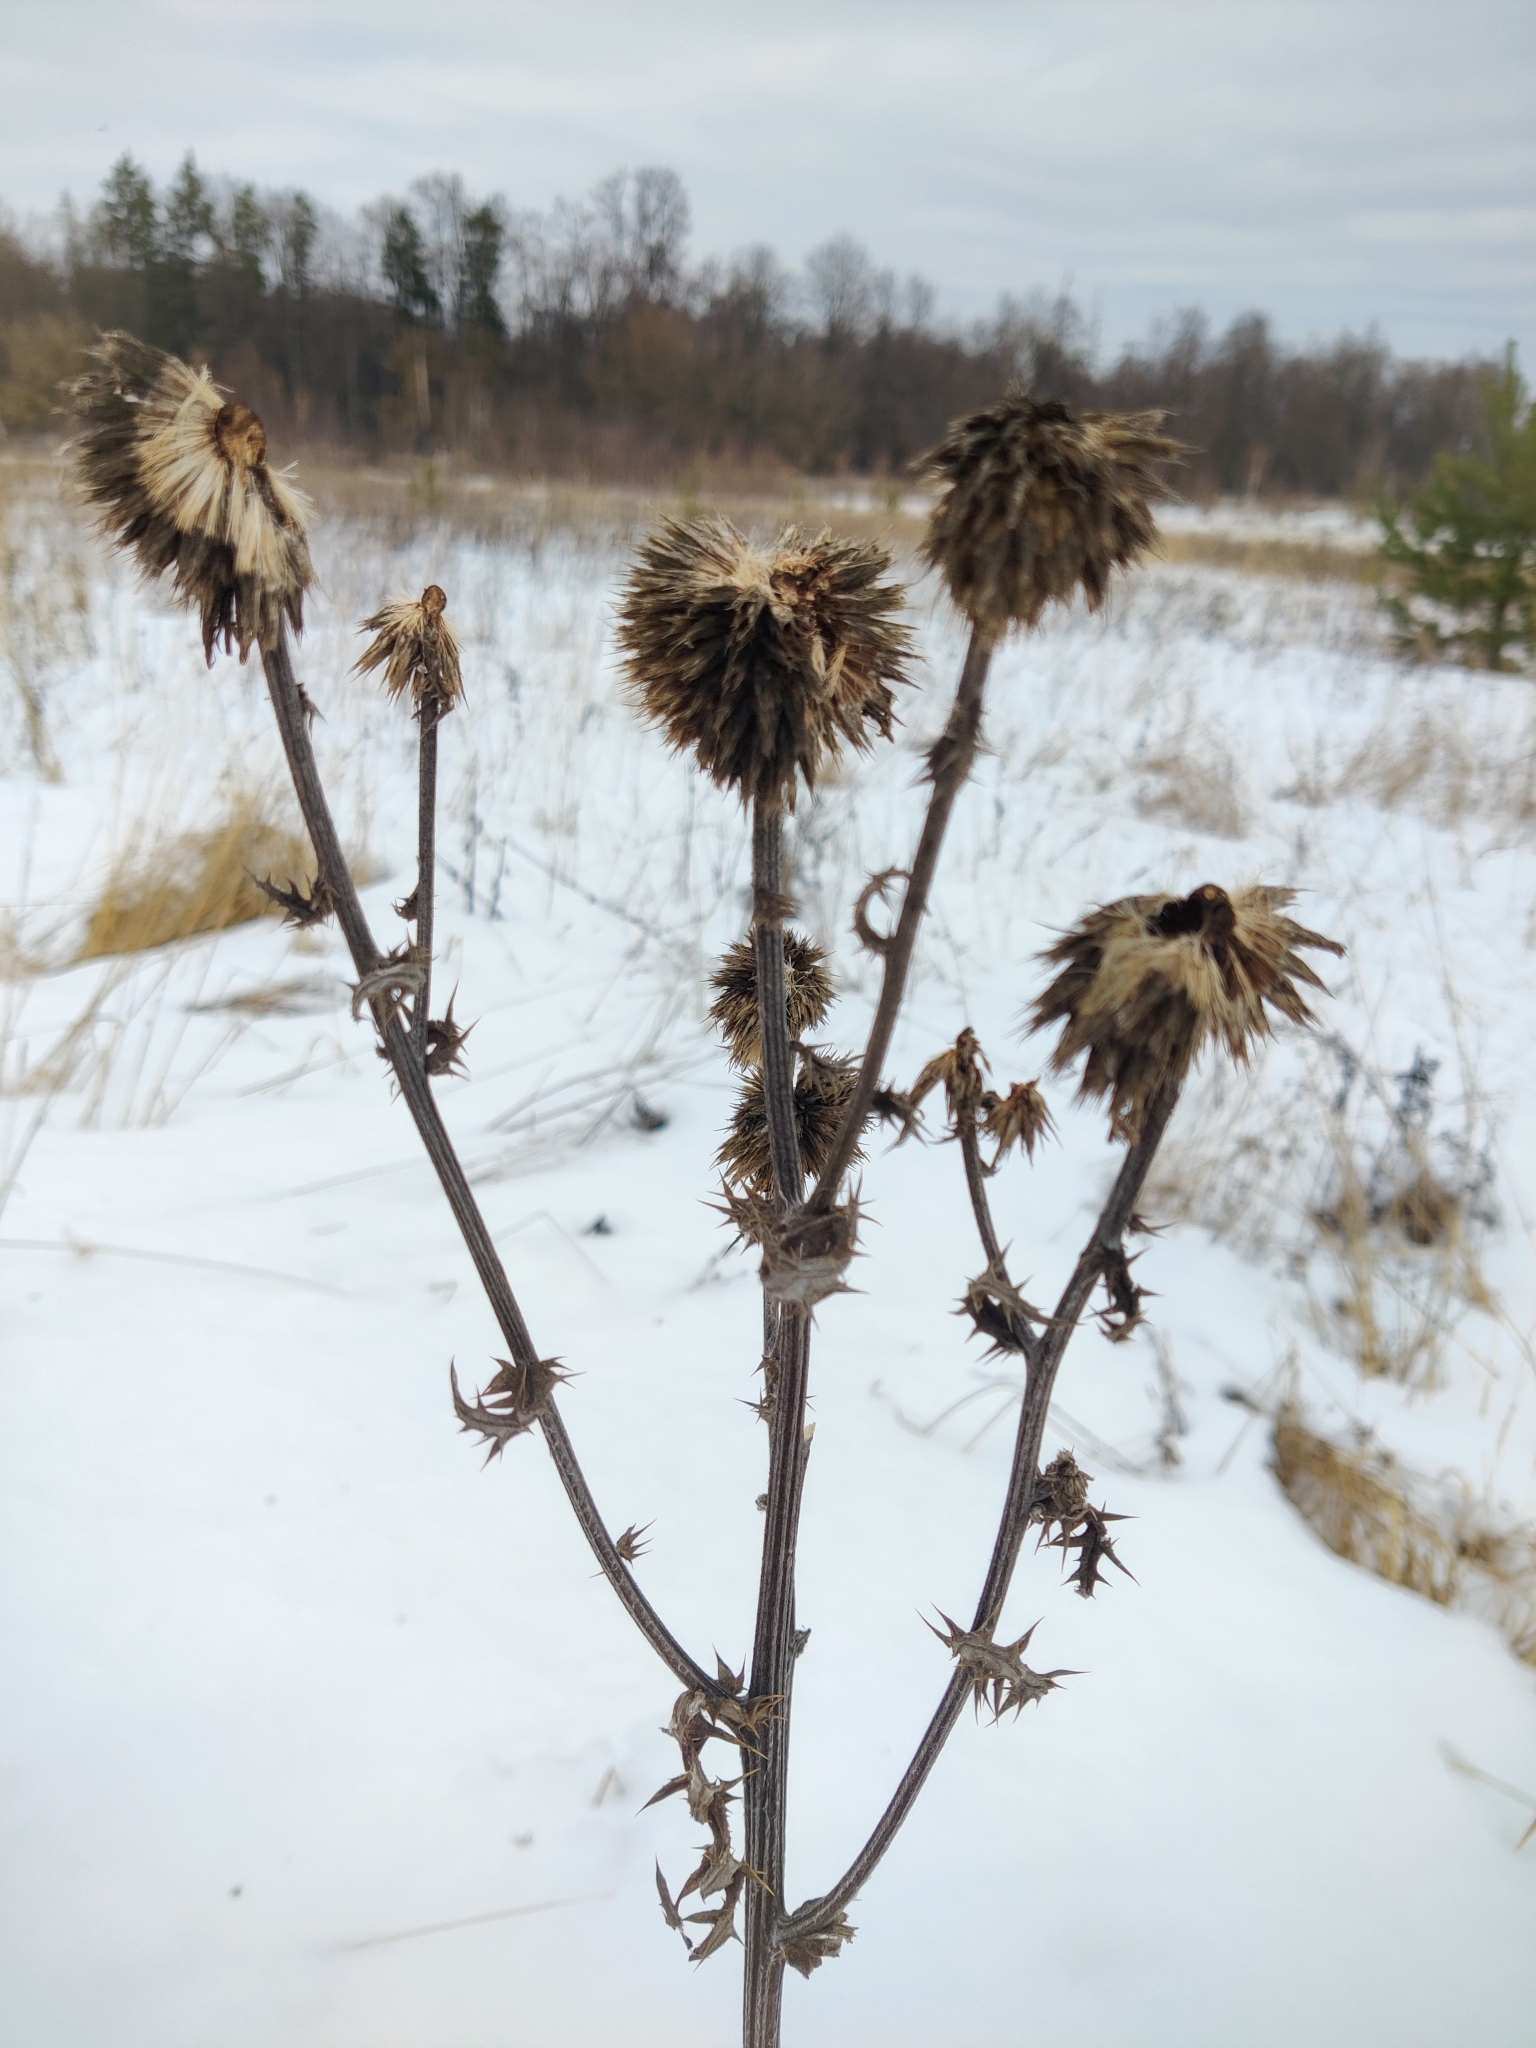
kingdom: Plantae
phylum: Tracheophyta
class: Magnoliopsida
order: Asterales
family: Asteraceae
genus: Echinops
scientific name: Echinops sphaerocephalus
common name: Glandular globe-thistle
